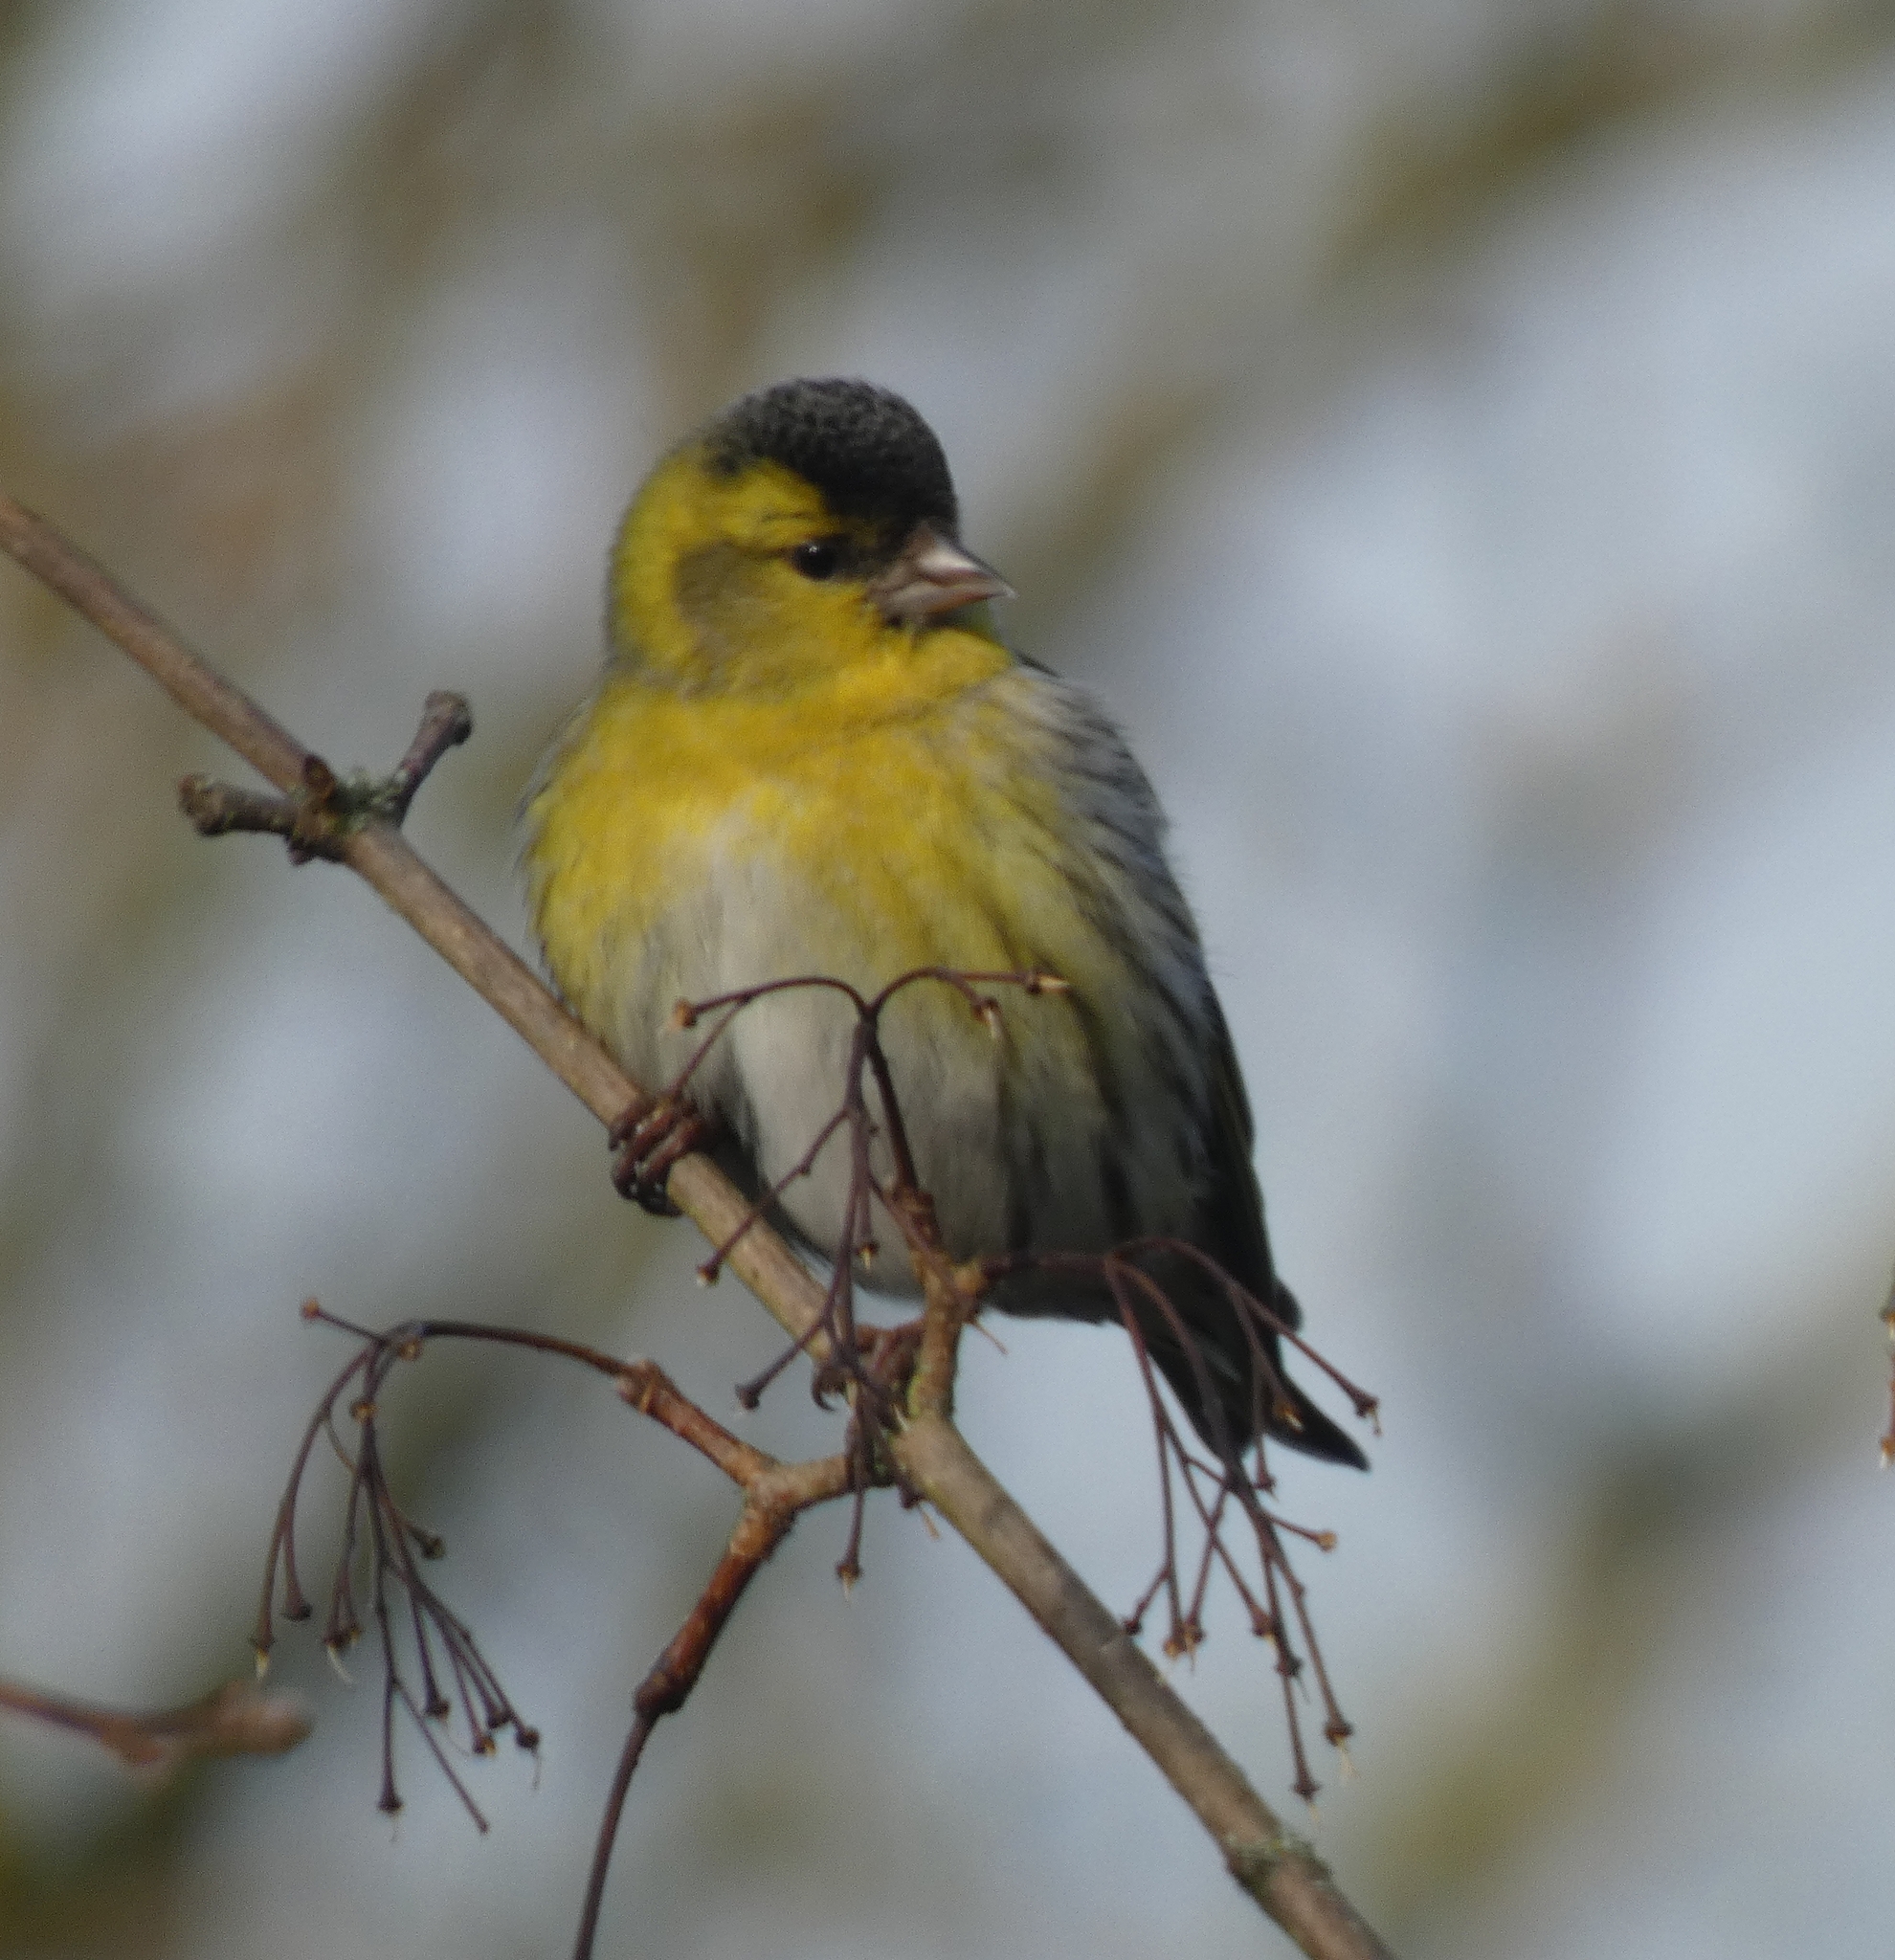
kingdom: Animalia
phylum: Chordata
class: Aves
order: Passeriformes
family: Fringillidae
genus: Spinus
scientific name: Spinus spinus
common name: Eurasian siskin
